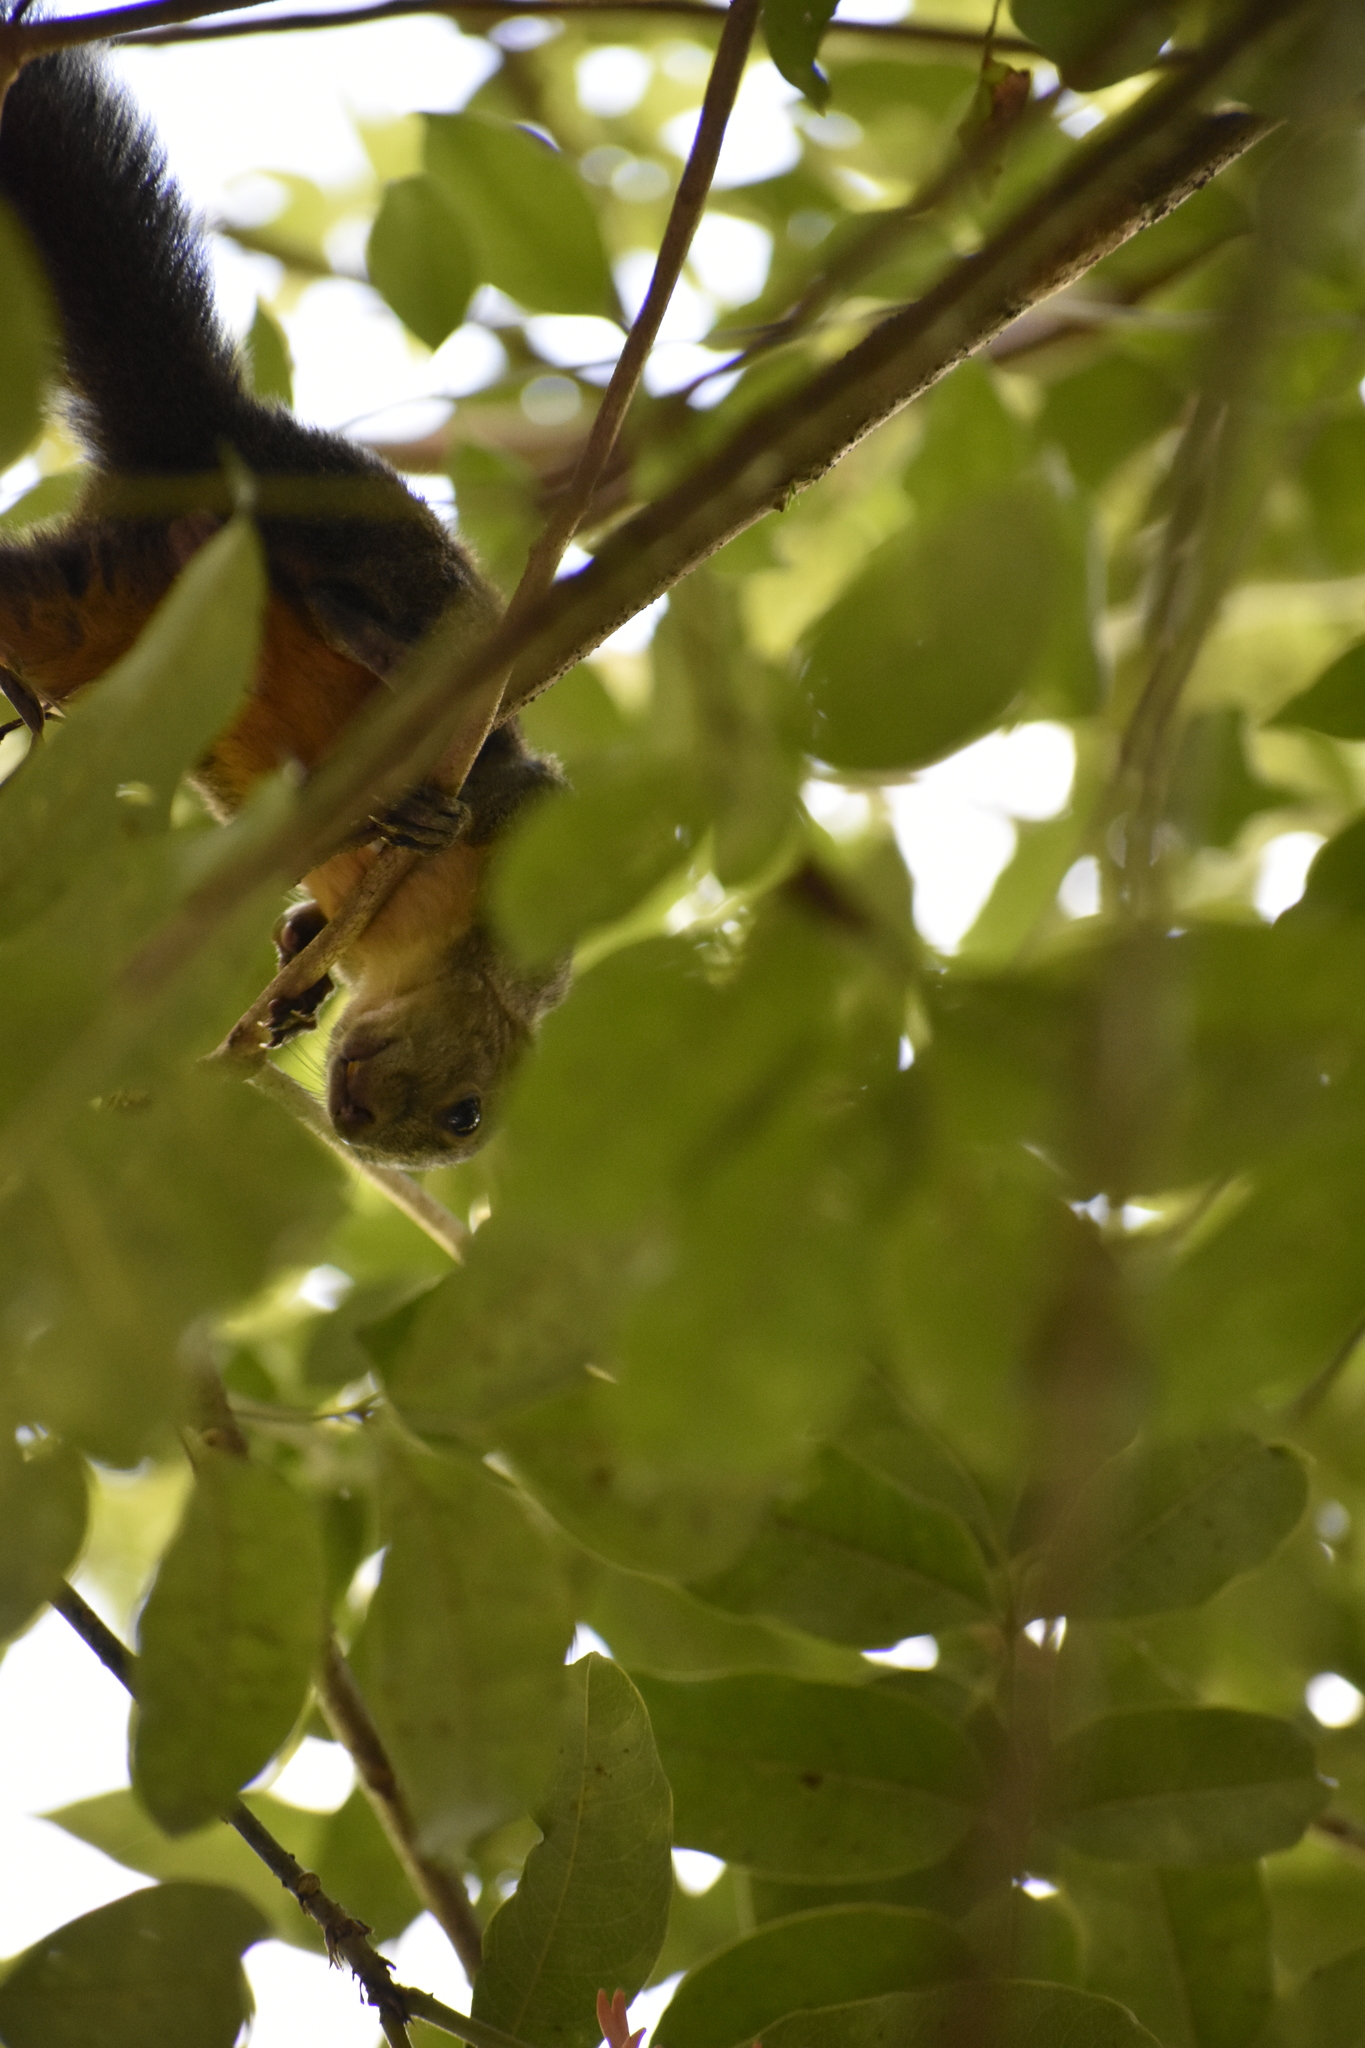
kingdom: Animalia
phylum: Chordata
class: Mammalia
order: Rodentia
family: Sciuridae
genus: Sciurus
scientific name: Sciurus aureogaster
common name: Red-bellied squirrel
